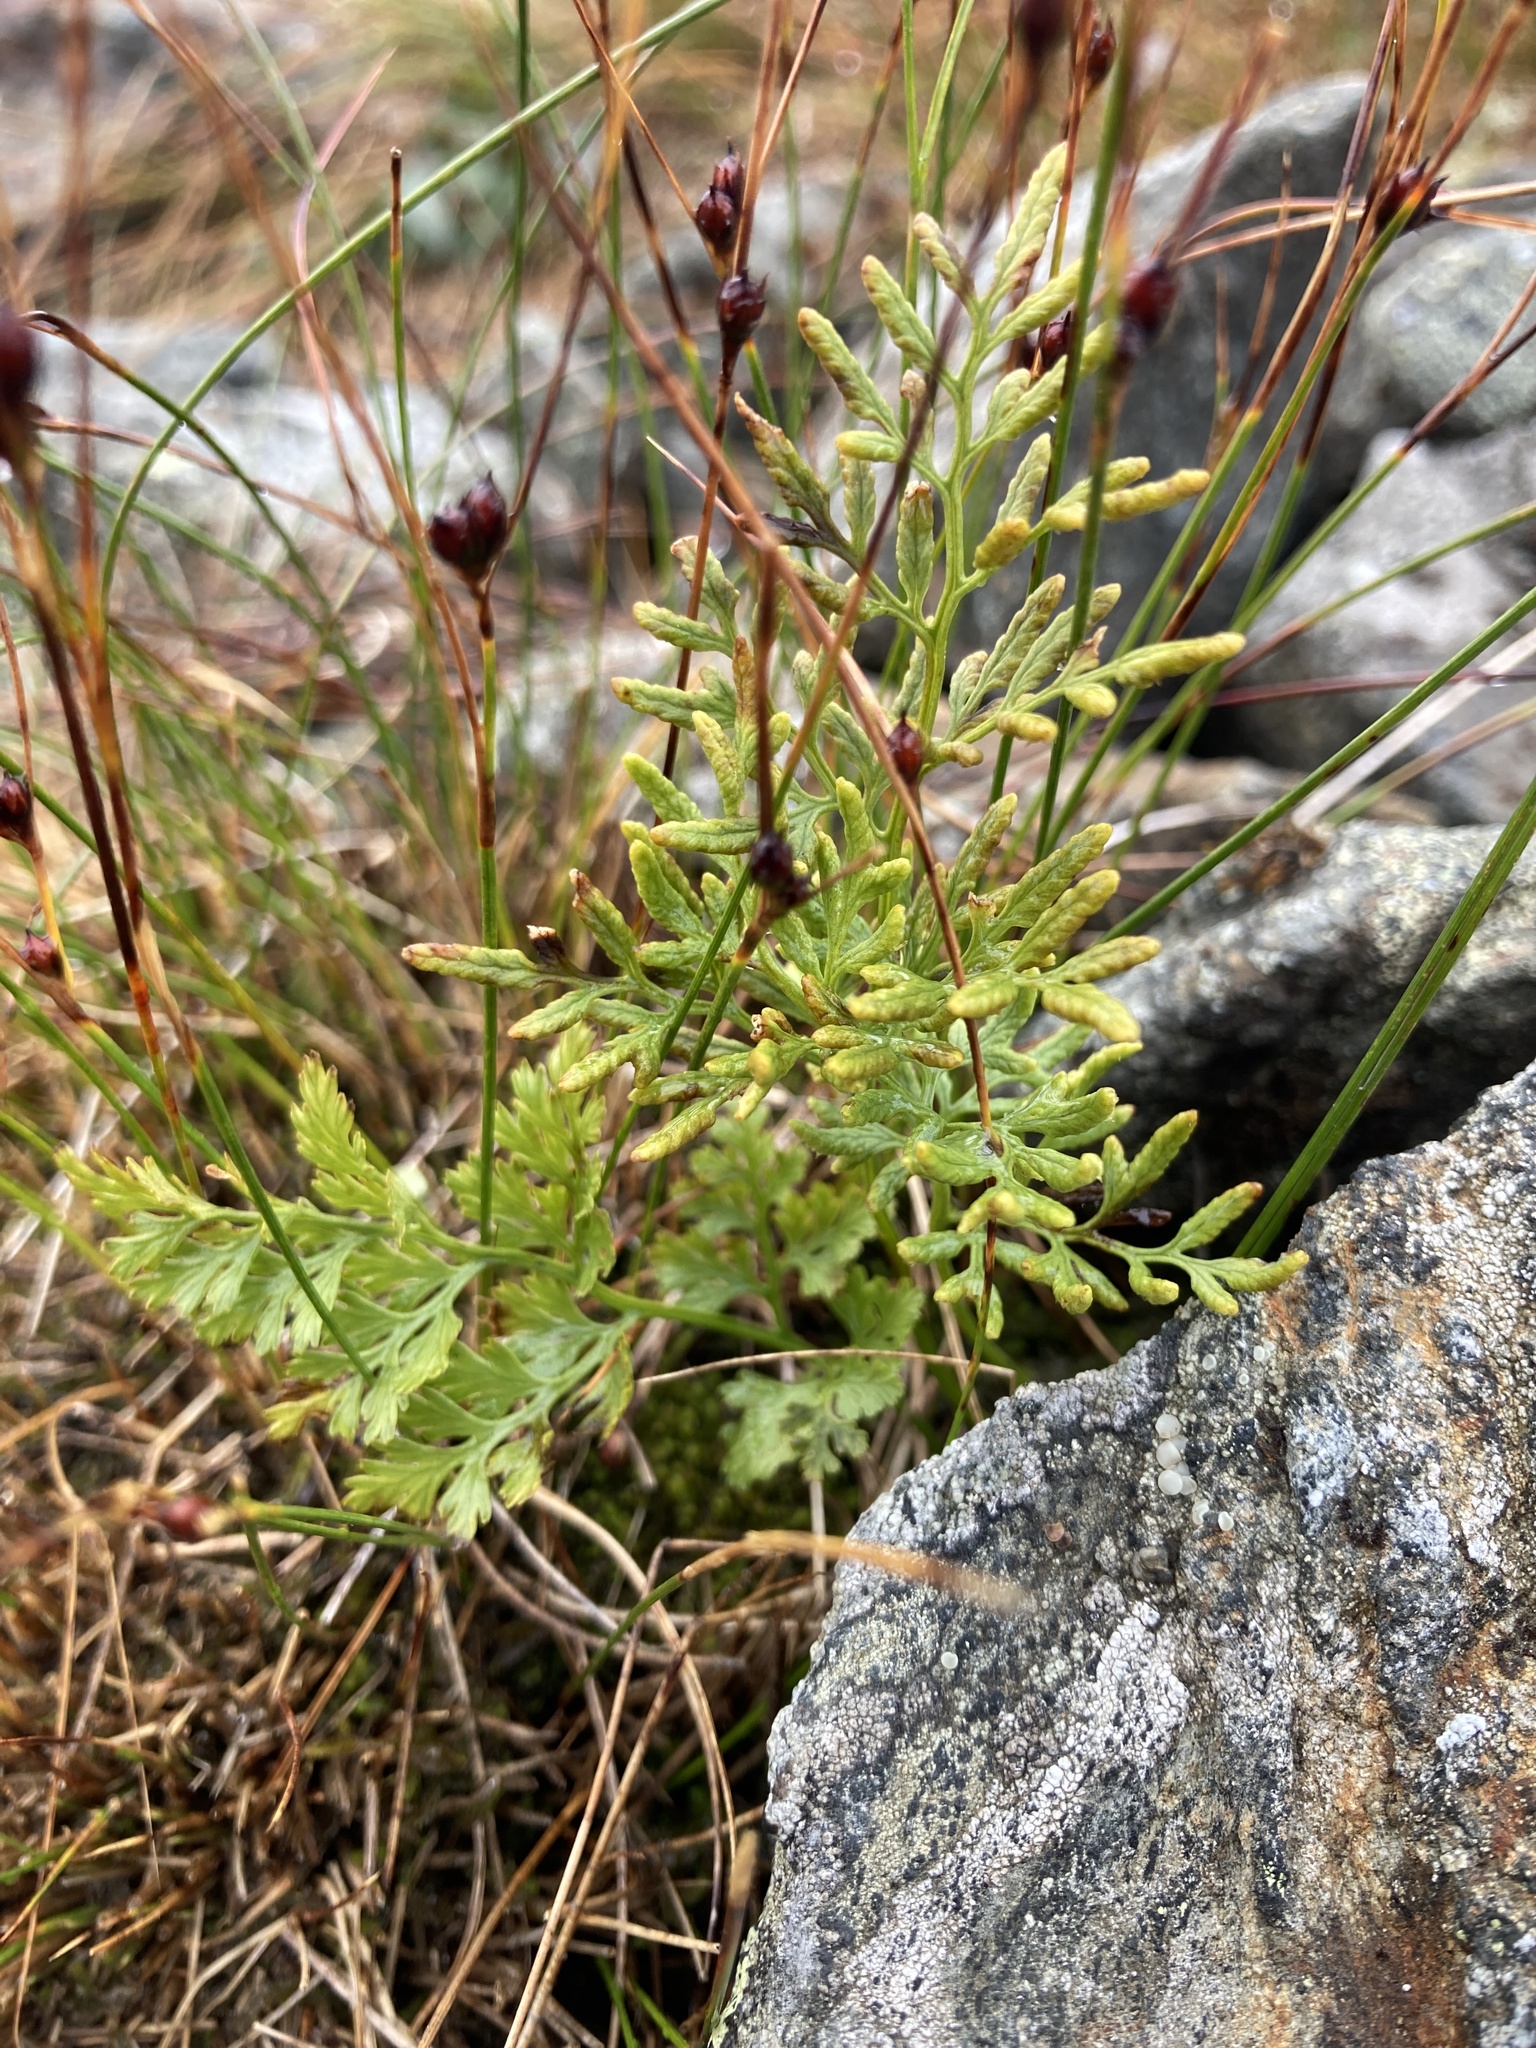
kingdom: Plantae
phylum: Tracheophyta
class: Polypodiopsida
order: Polypodiales
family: Pteridaceae
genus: Cryptogramma
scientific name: Cryptogramma crispa
